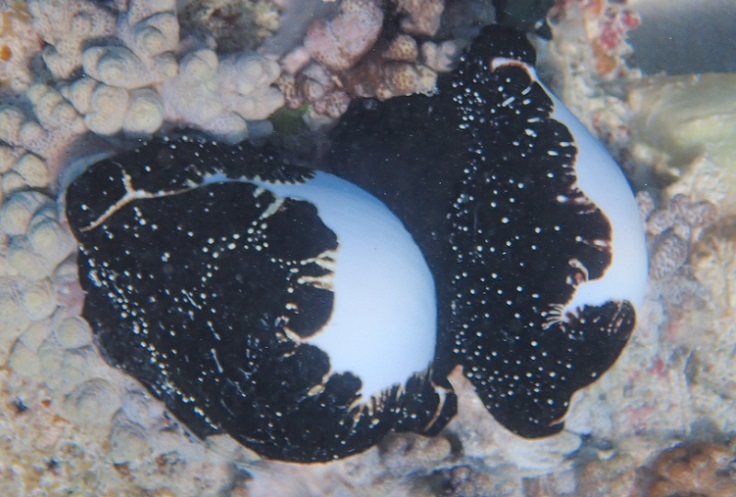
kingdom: Animalia
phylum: Mollusca
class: Gastropoda
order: Littorinimorpha
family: Ovulidae
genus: Ovula
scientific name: Ovula ovum
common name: Common egg cowrie
